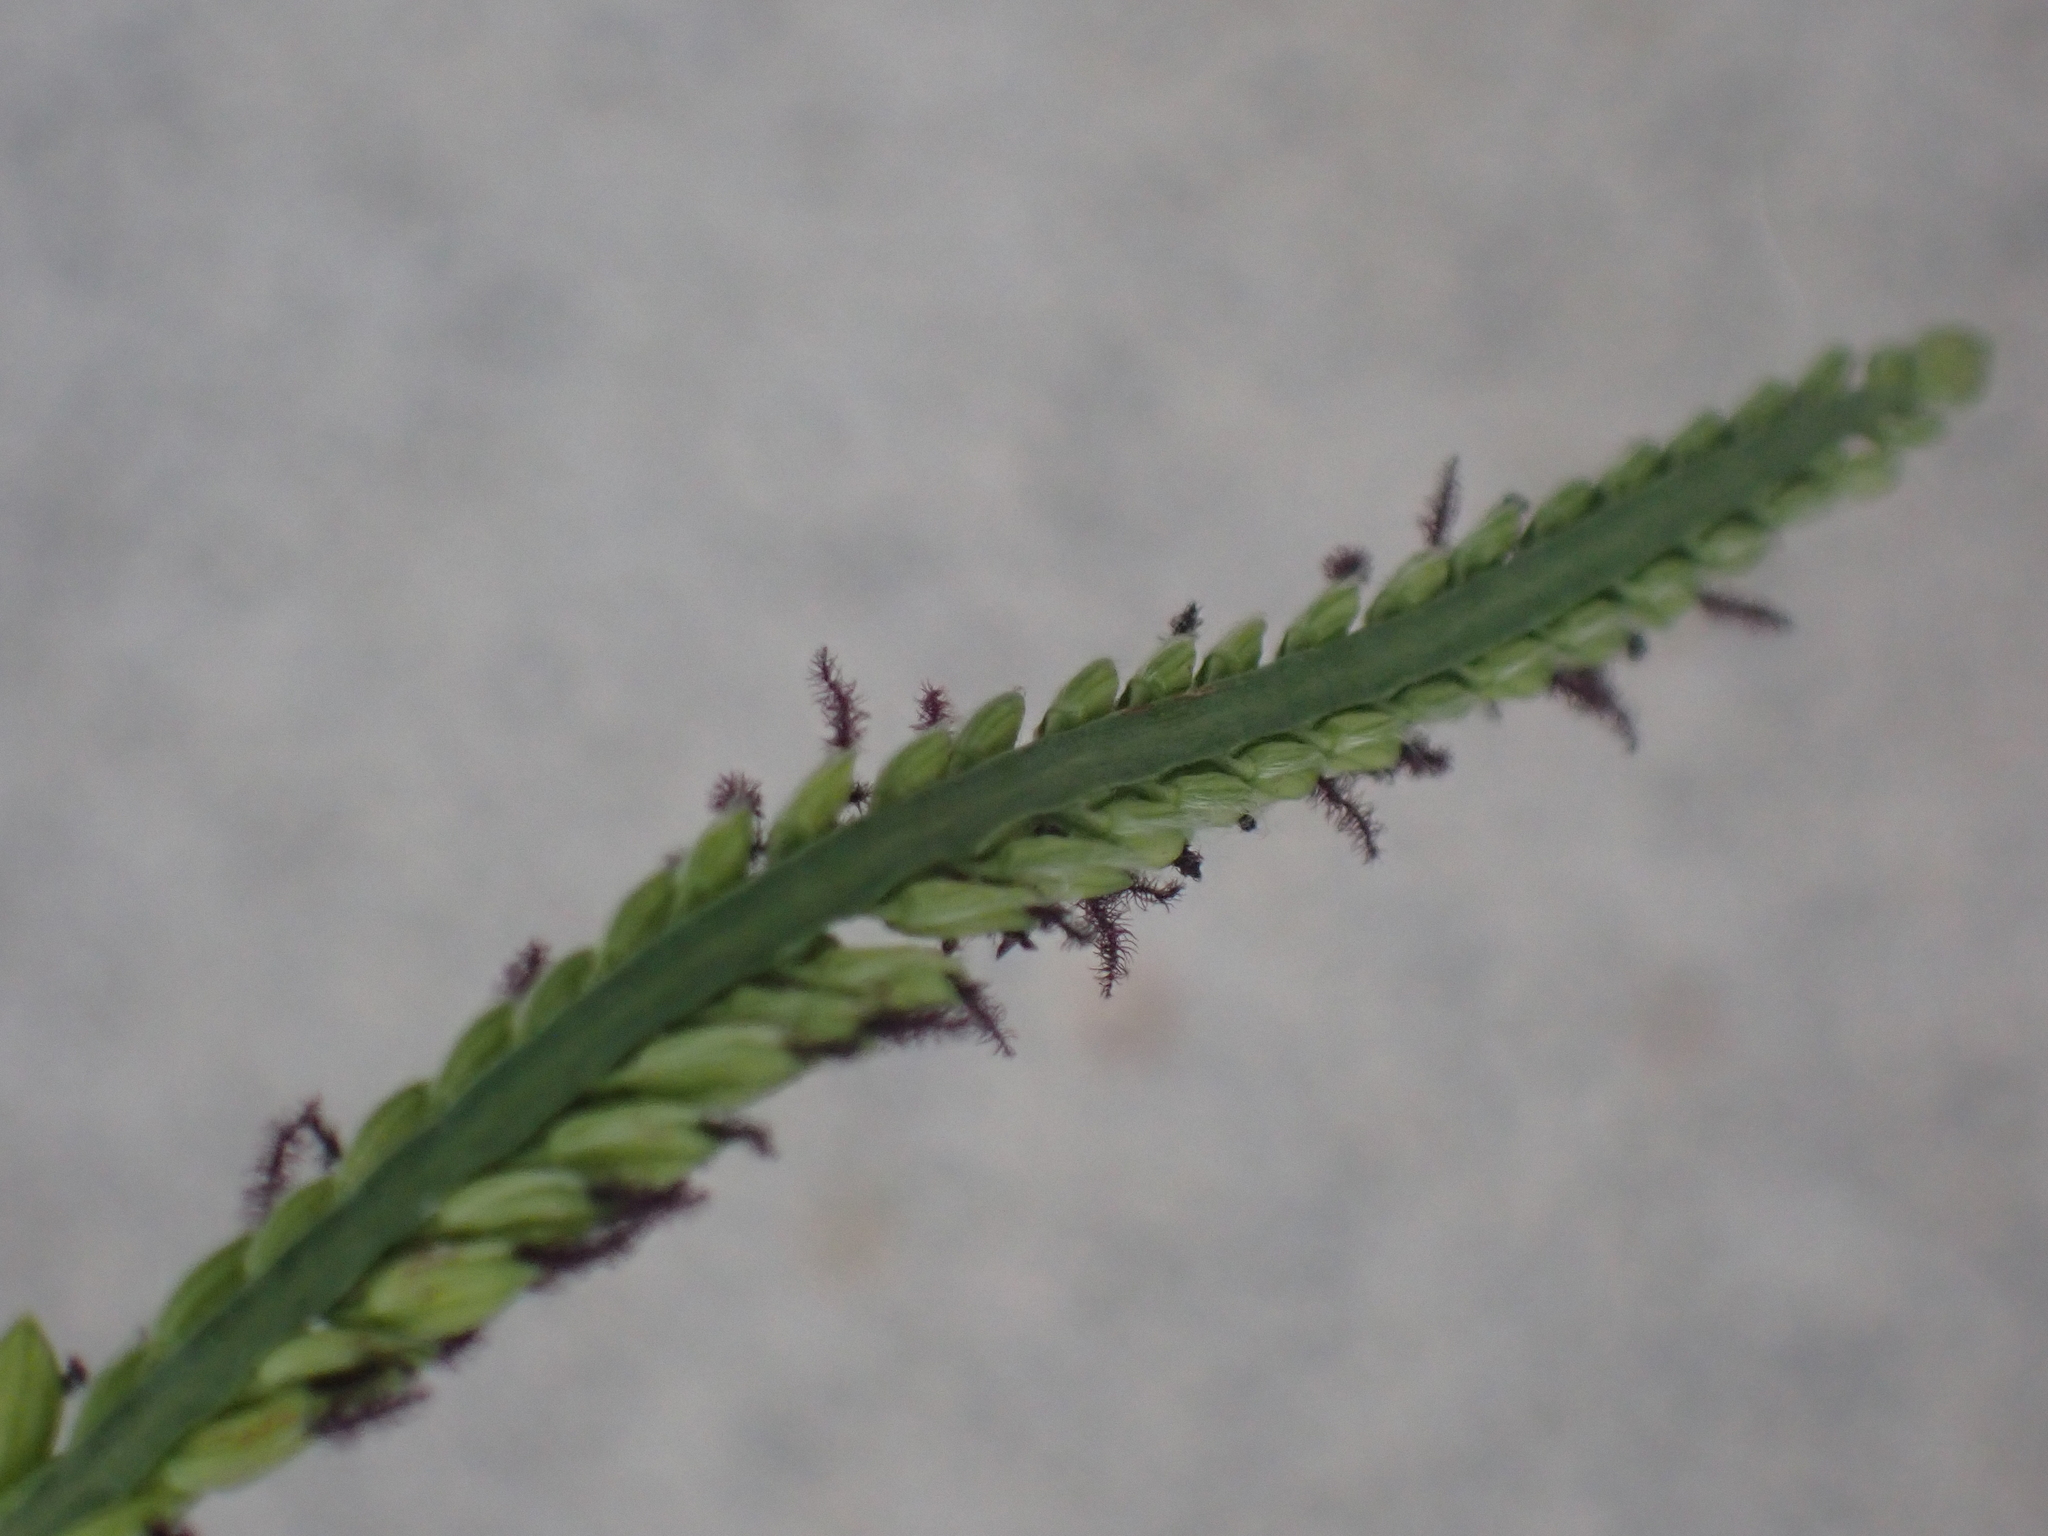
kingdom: Plantae
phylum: Tracheophyta
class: Liliopsida
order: Poales
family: Poaceae
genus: Paspalum
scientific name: Paspalum dilatatum
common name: Dallisgrass
